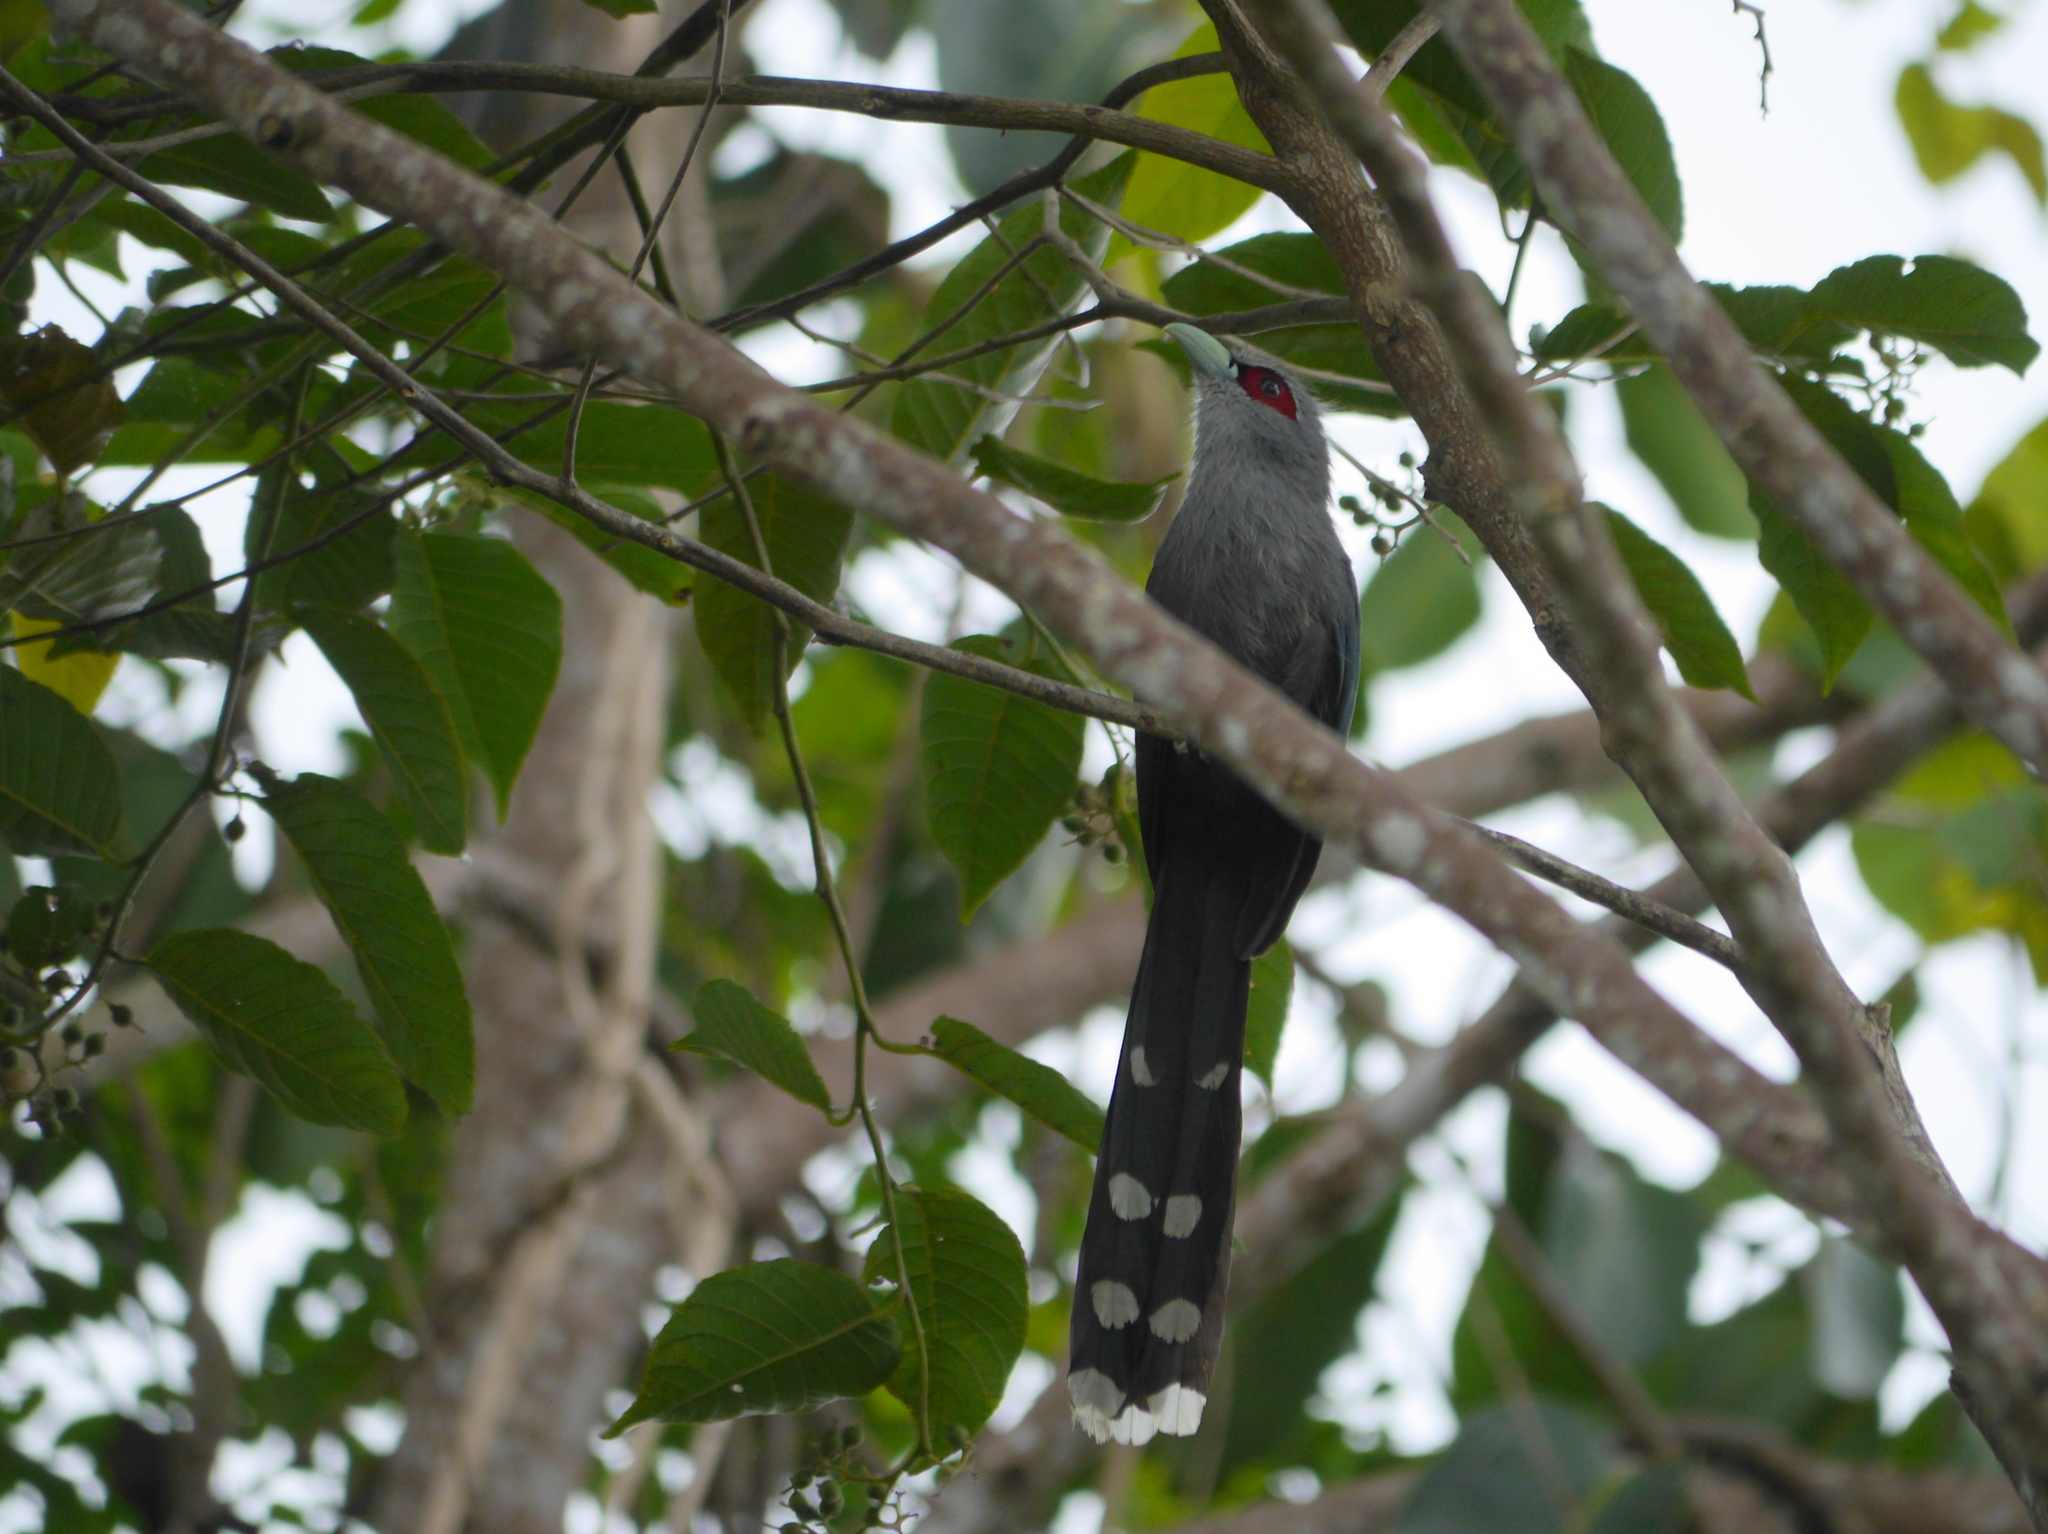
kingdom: Animalia
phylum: Chordata
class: Aves
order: Cuculiformes
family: Cuculidae
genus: Rhopodytes
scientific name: Rhopodytes tristis
